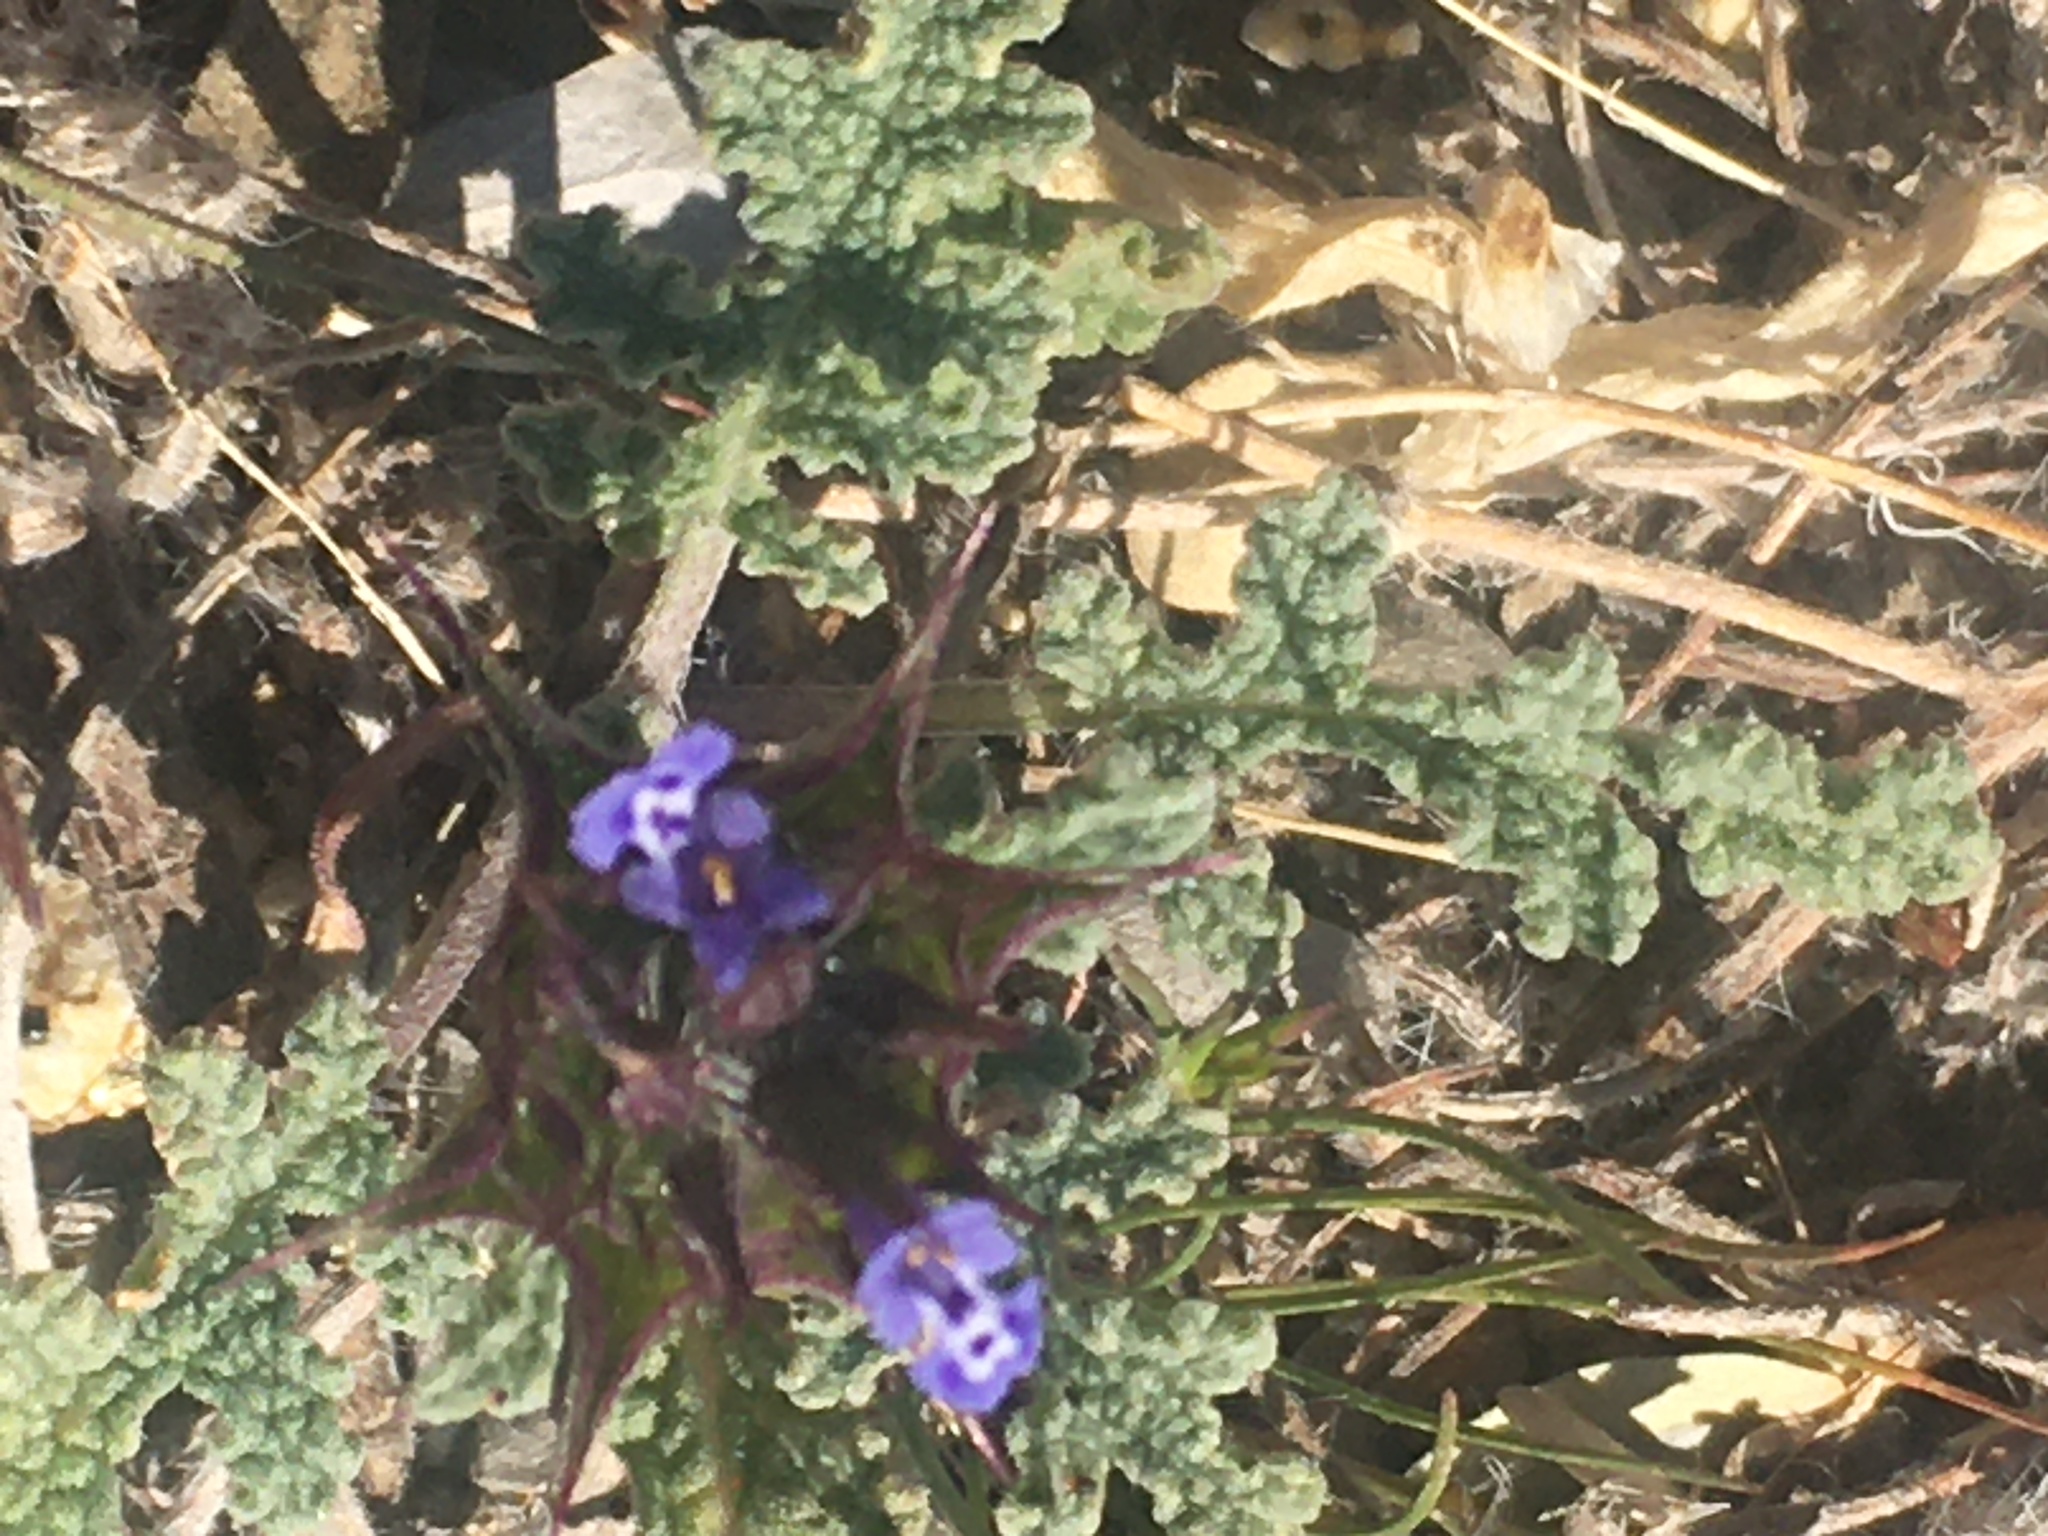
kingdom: Plantae
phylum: Tracheophyta
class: Magnoliopsida
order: Lamiales
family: Lamiaceae
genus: Salvia
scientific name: Salvia columbariae
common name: Chia
